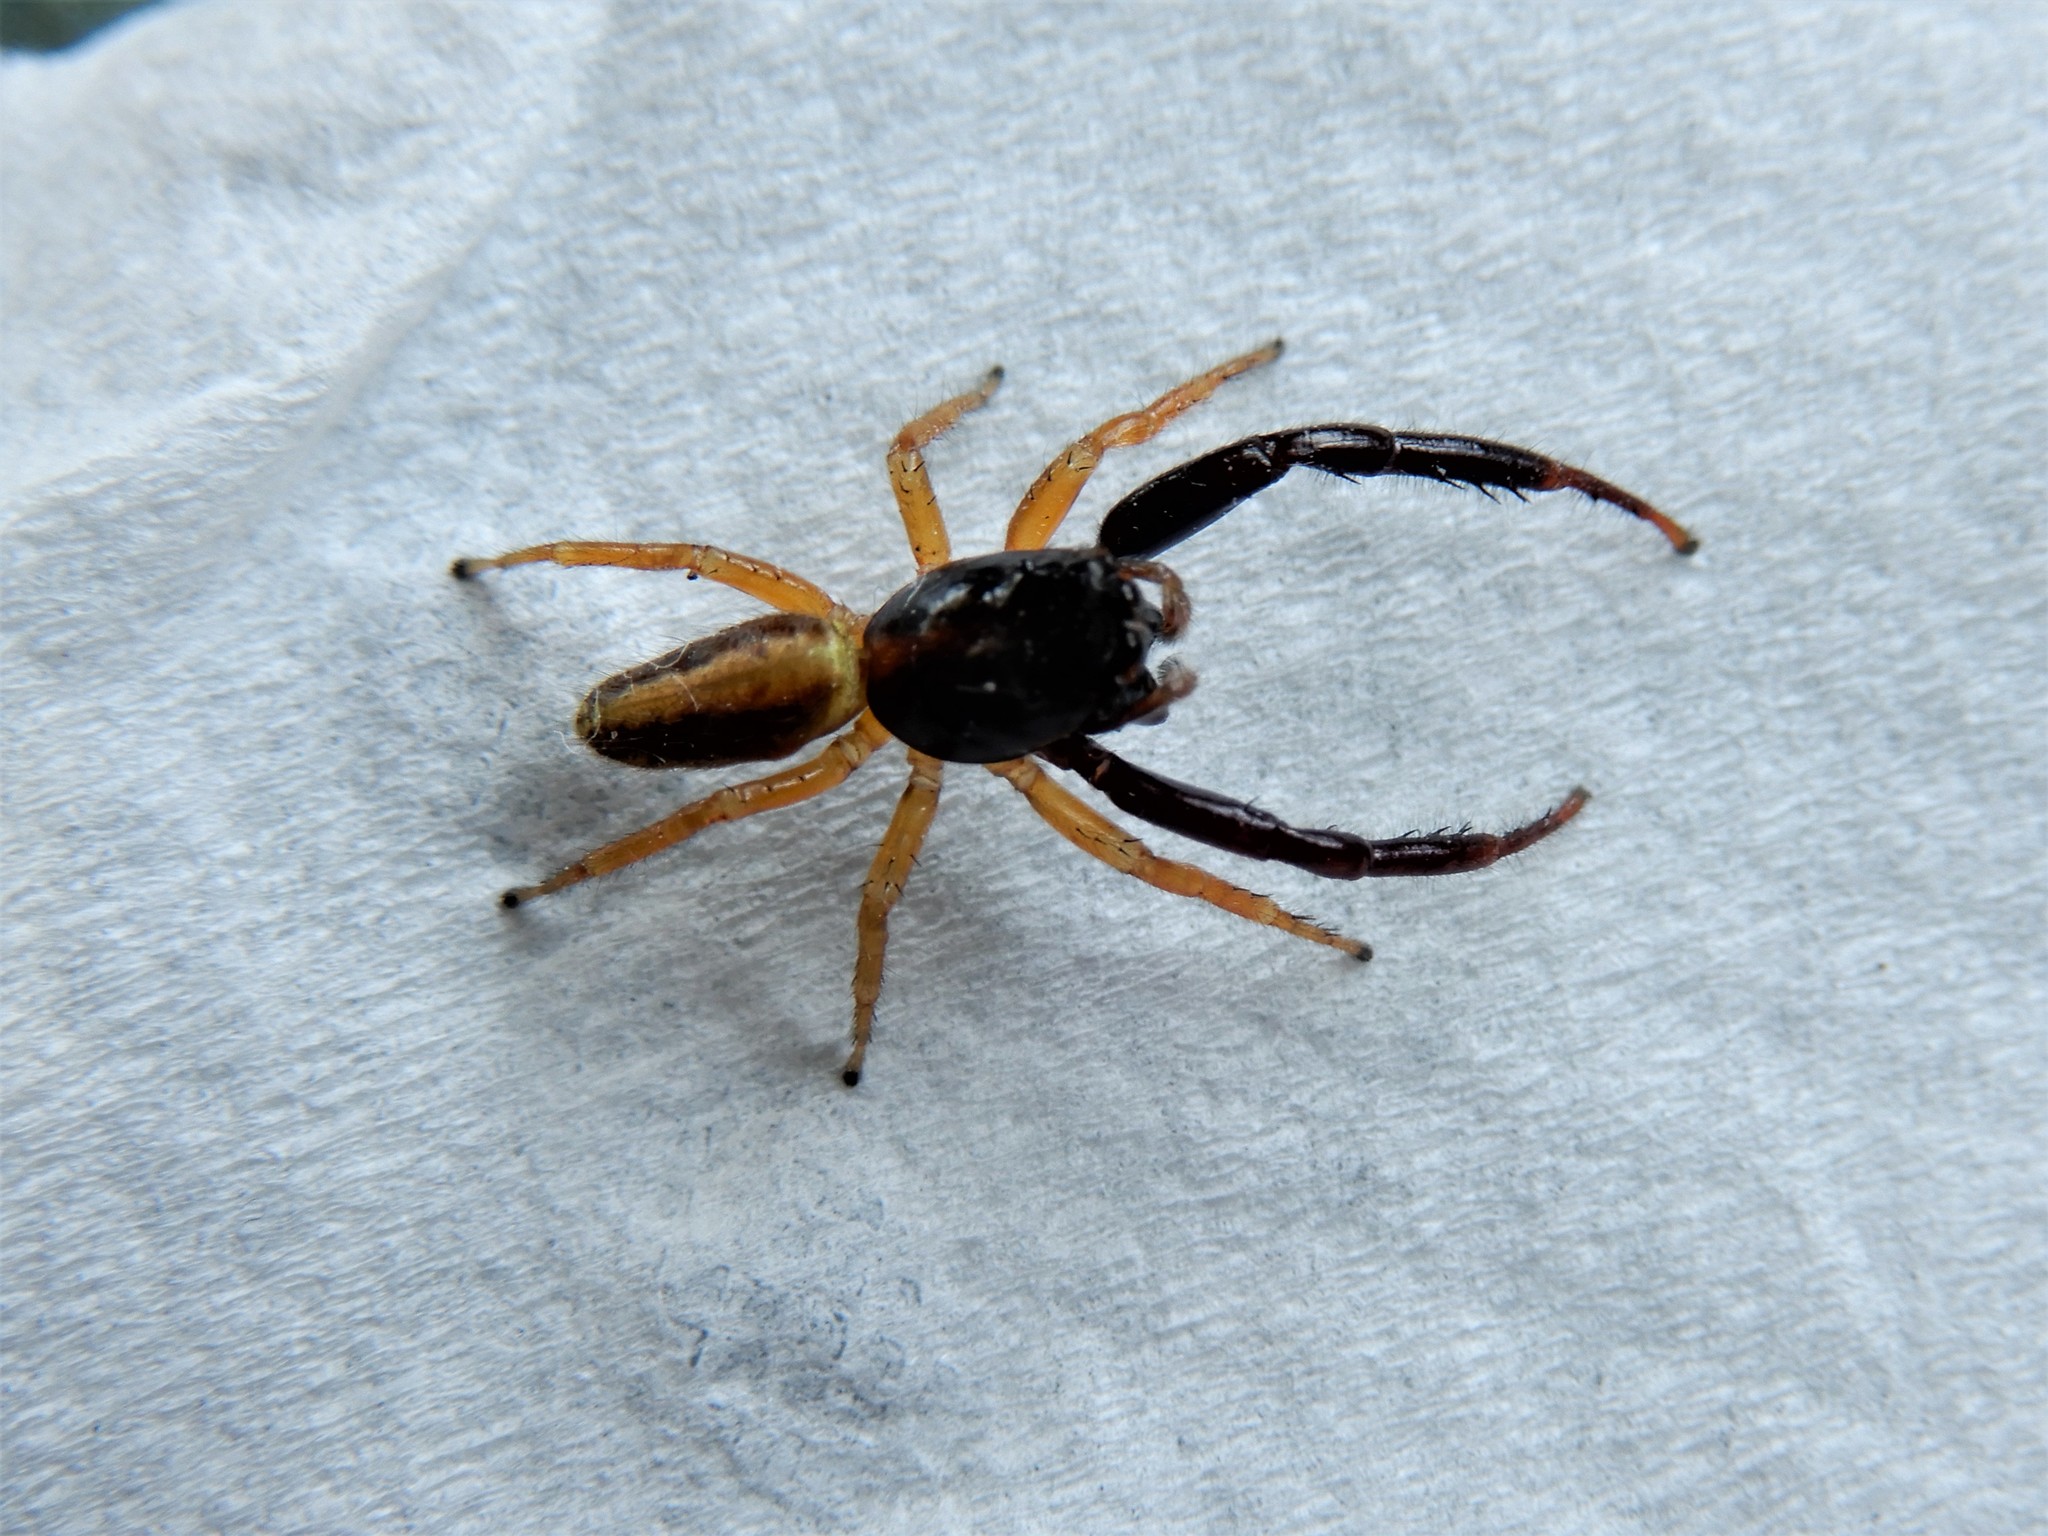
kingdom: Animalia
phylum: Arthropoda
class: Arachnida
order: Araneae
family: Salticidae
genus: Trite
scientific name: Trite planiceps
